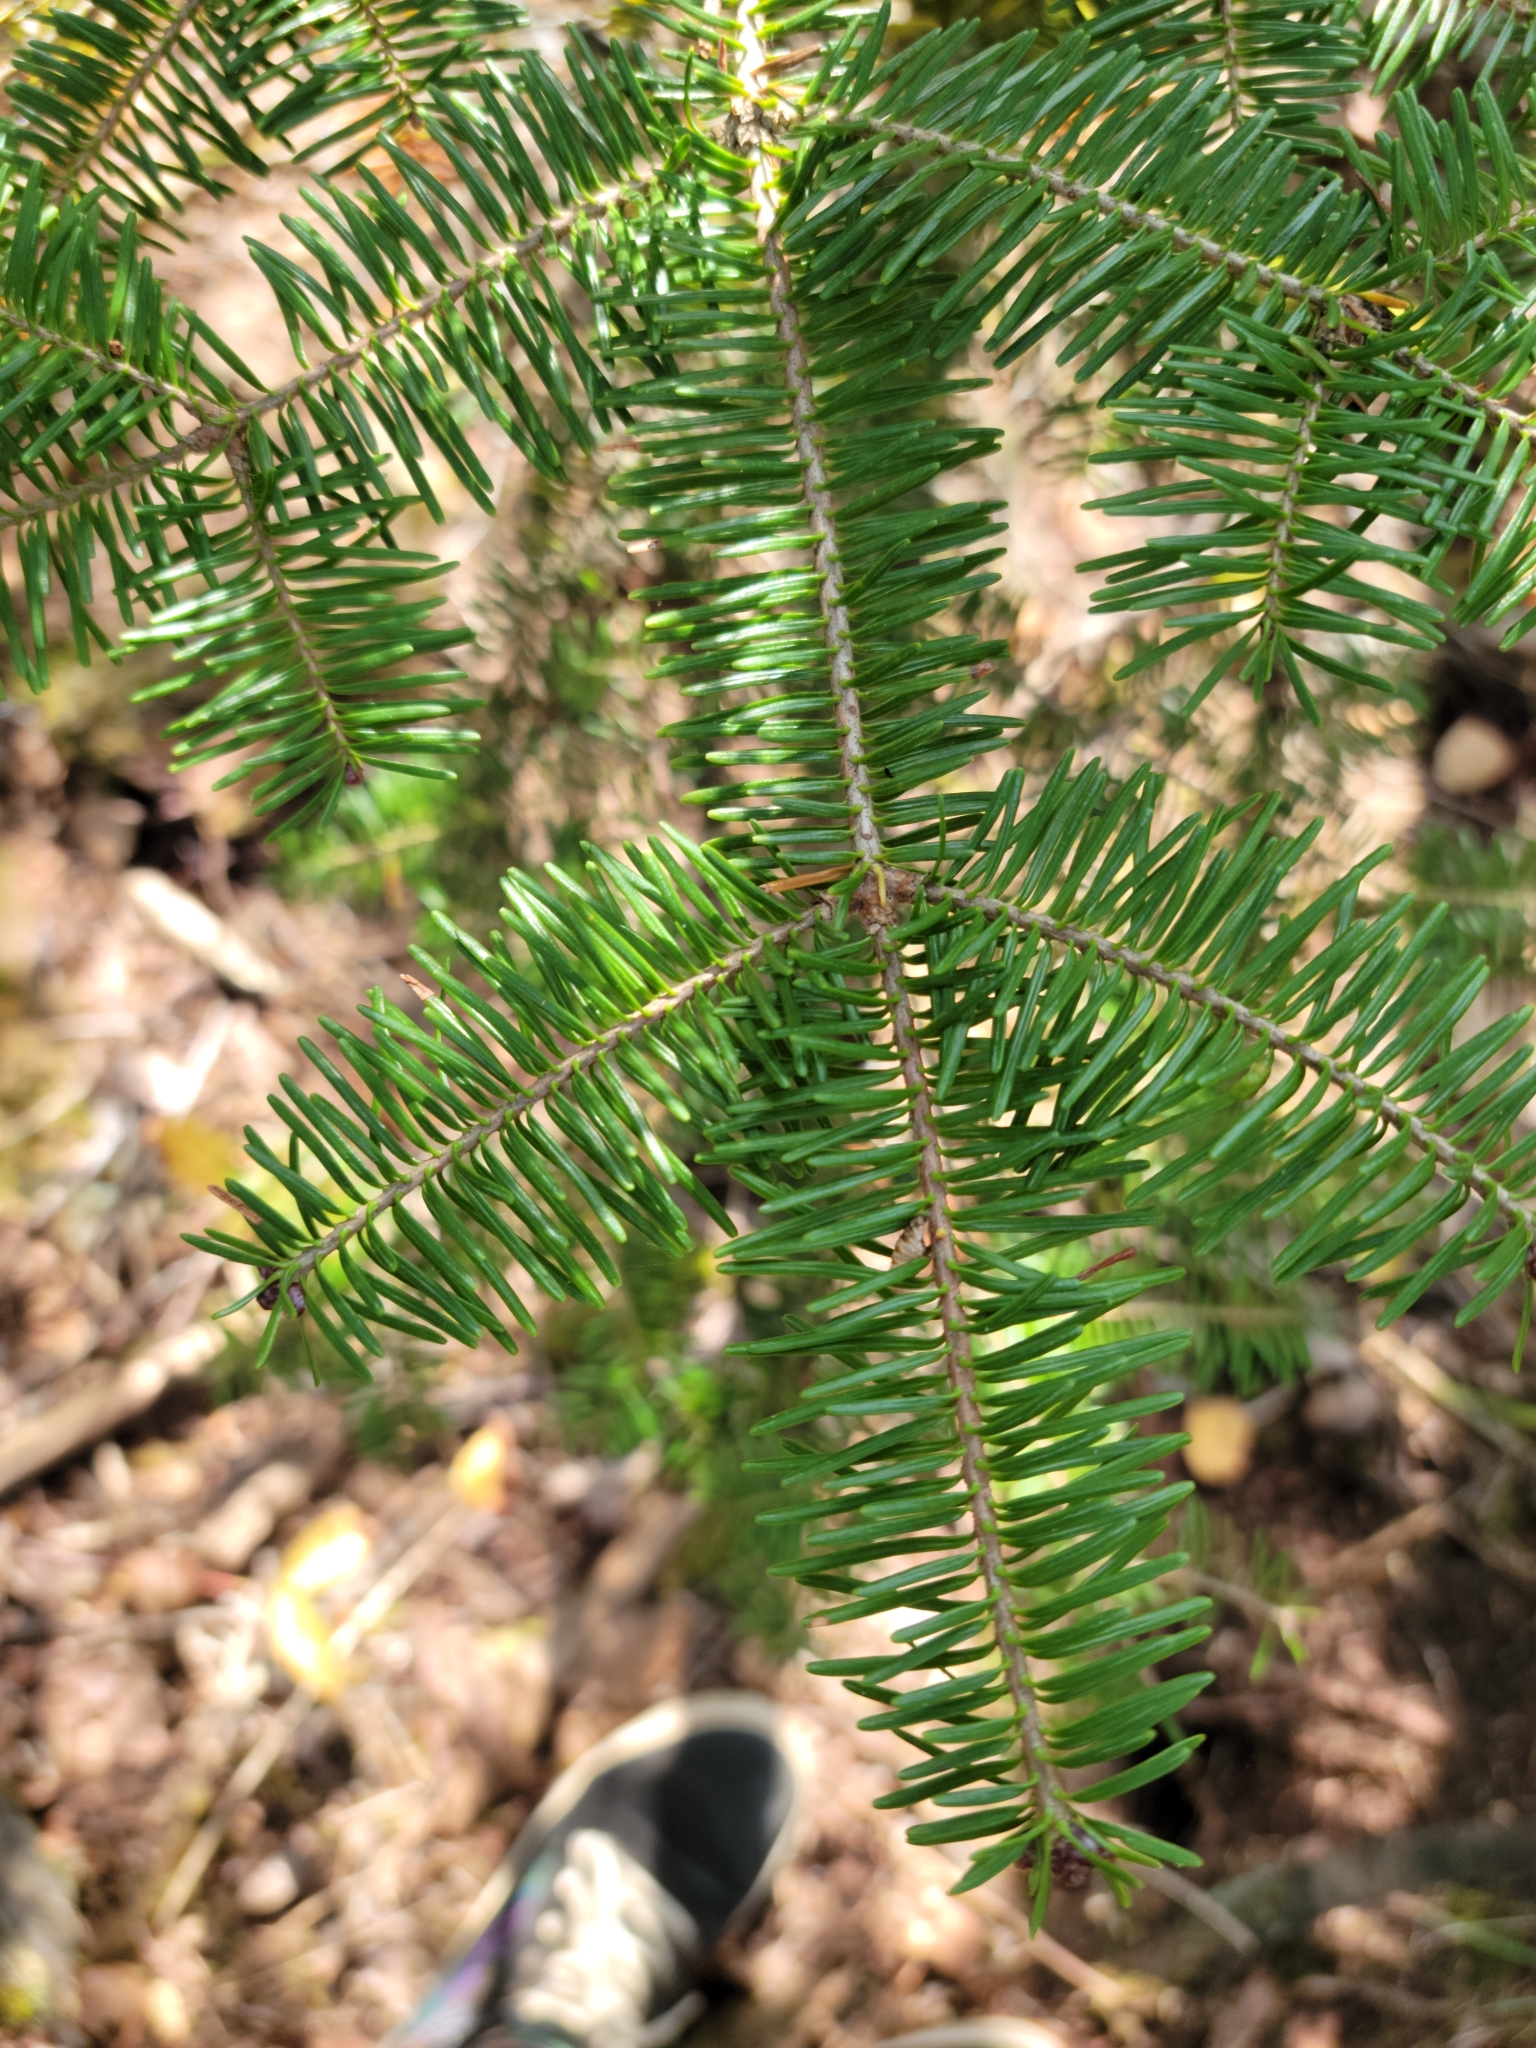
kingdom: Plantae
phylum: Tracheophyta
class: Pinopsida
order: Pinales
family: Pinaceae
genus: Abies
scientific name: Abies balsamea
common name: Balsam fir
